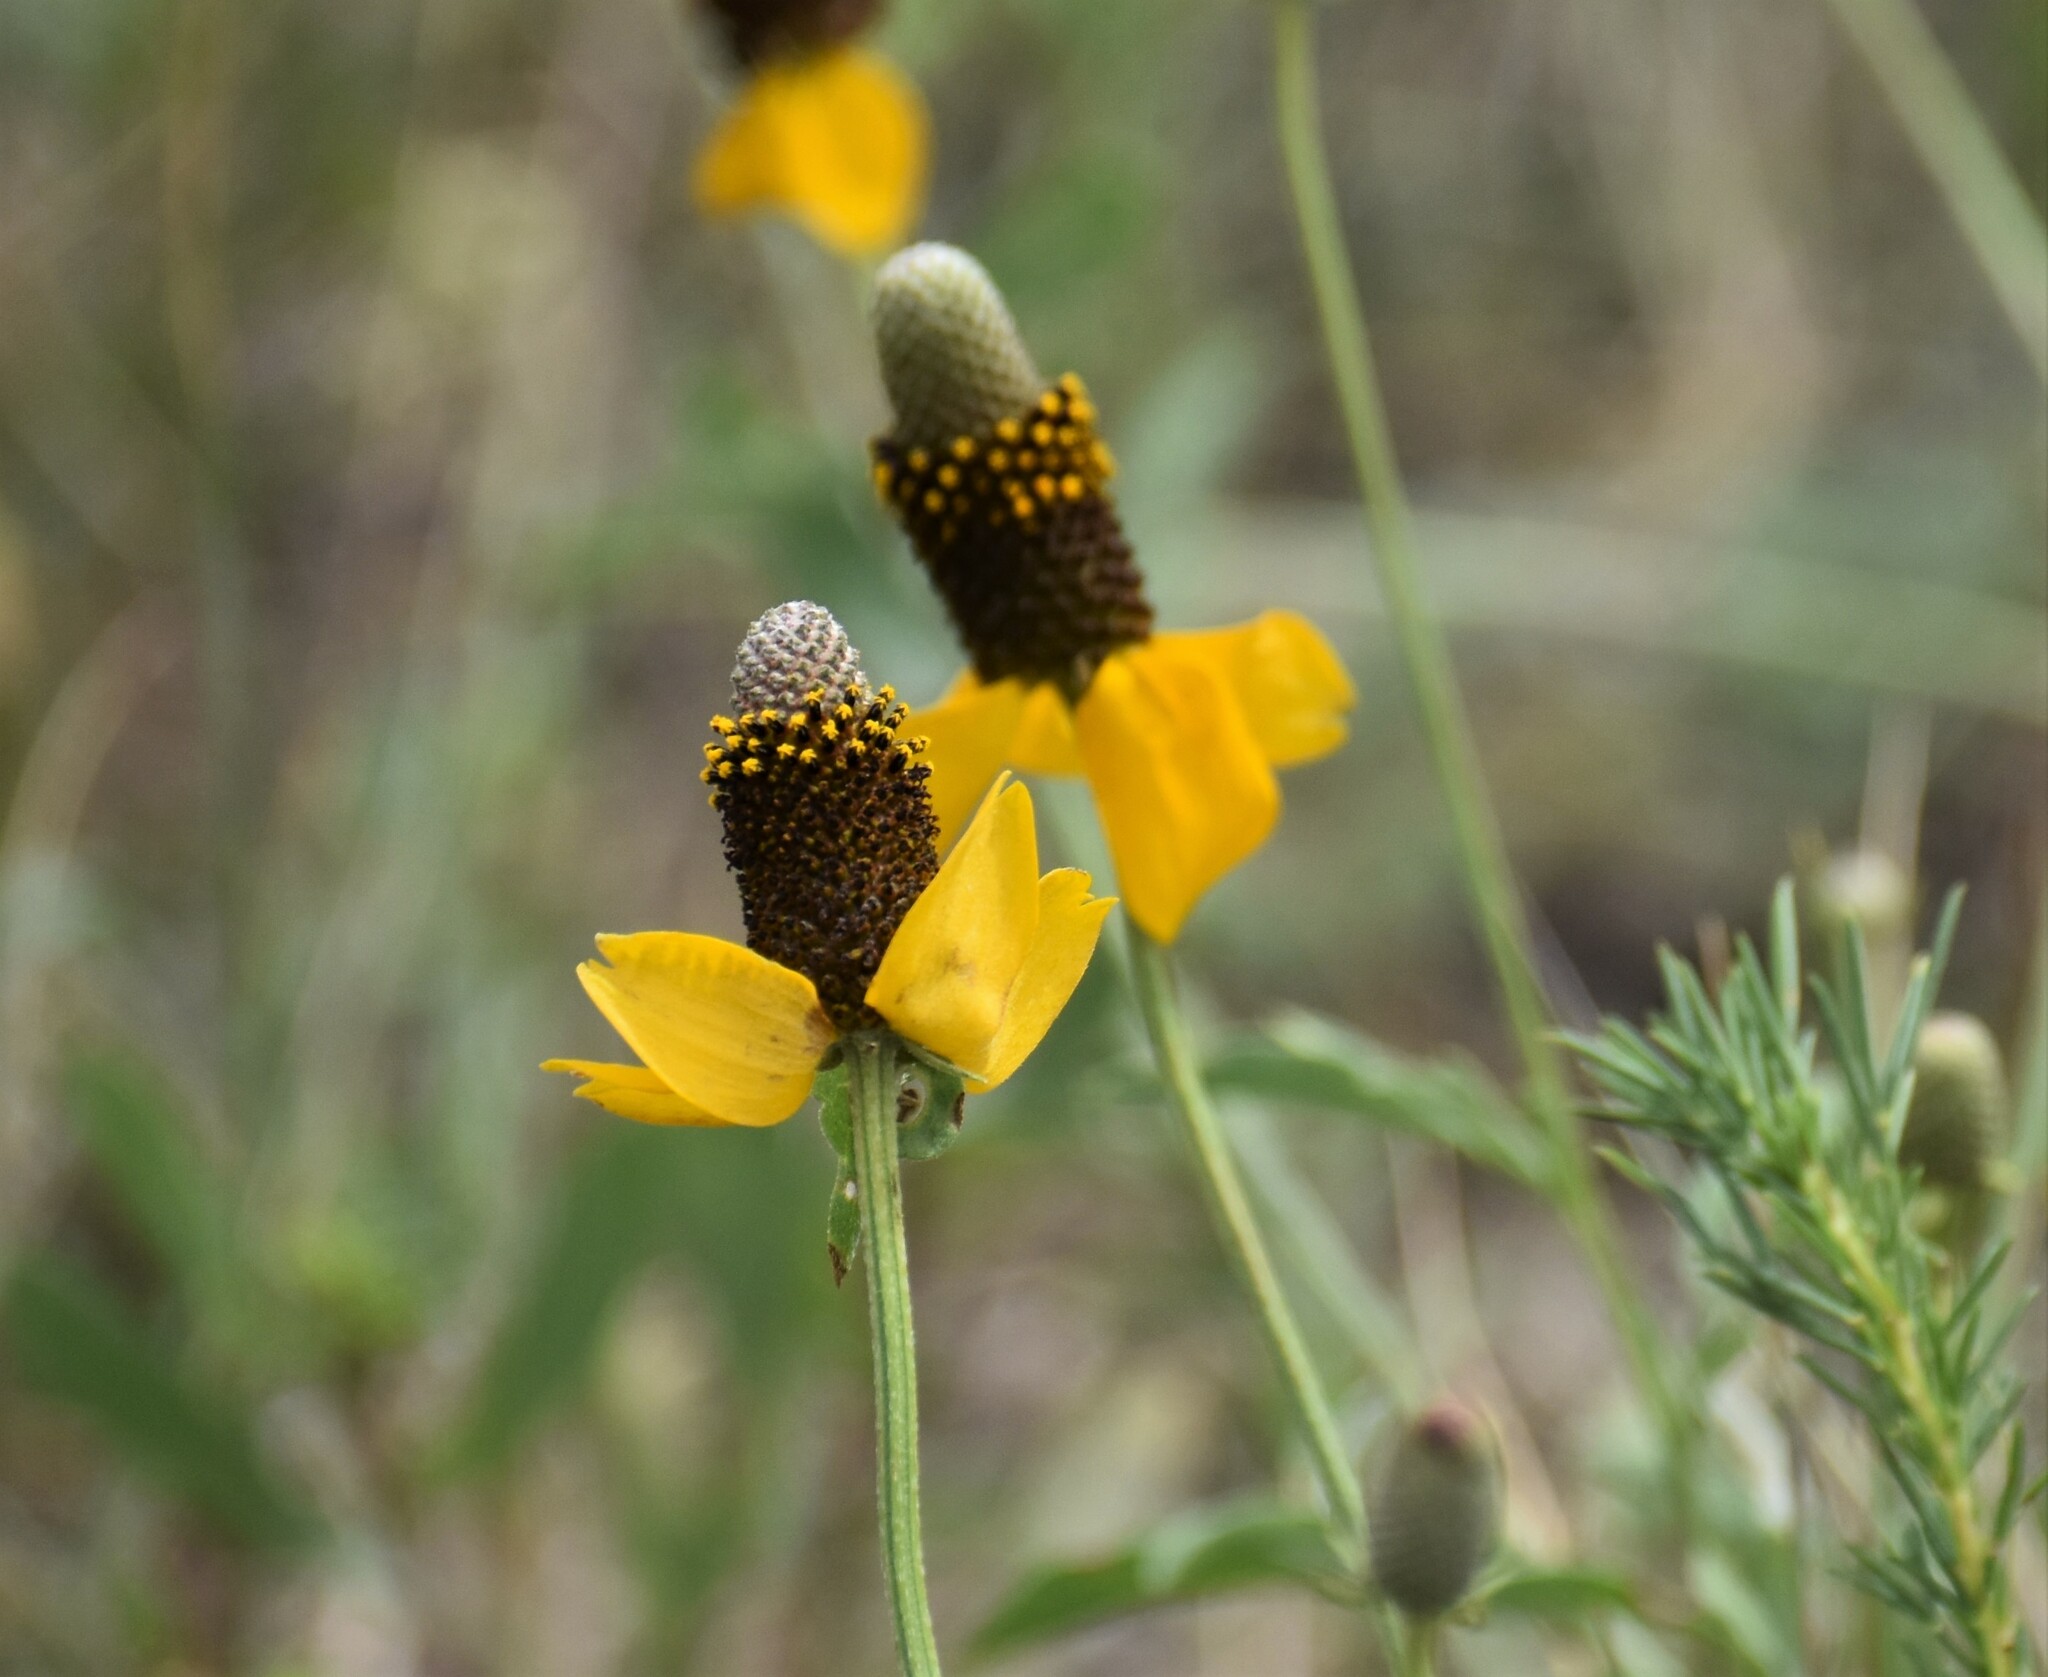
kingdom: Plantae
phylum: Tracheophyta
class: Magnoliopsida
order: Asterales
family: Asteraceae
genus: Ratibida
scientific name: Ratibida columnifera
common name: Prairie coneflower
